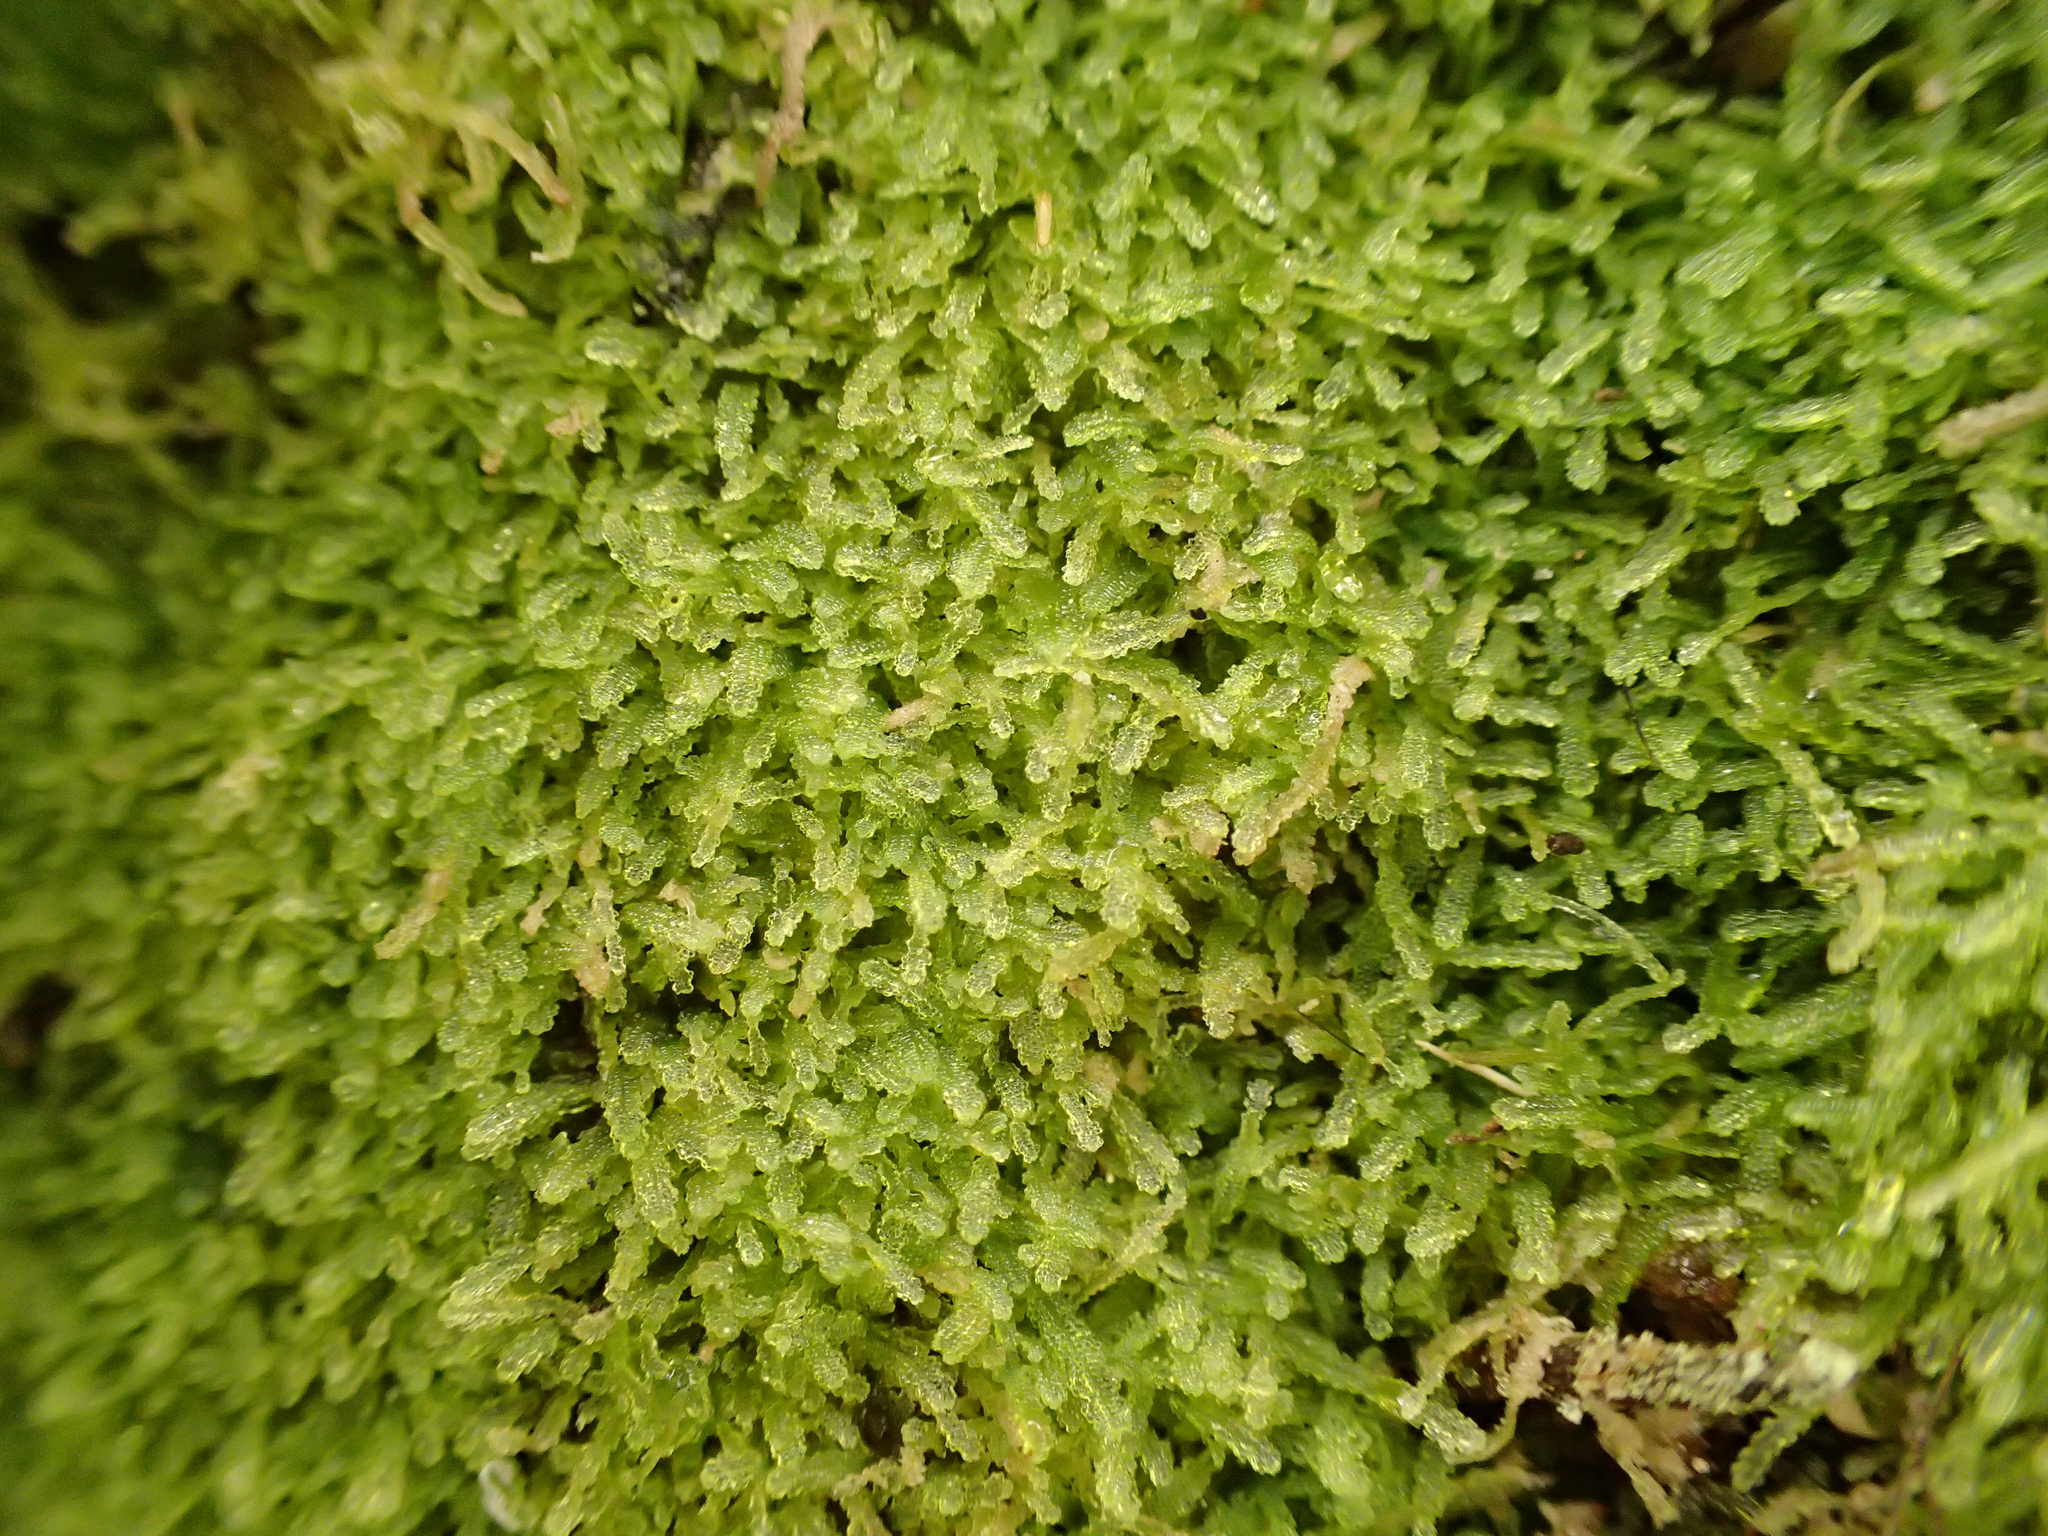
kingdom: Plantae
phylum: Marchantiophyta
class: Jungermanniopsida
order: Jungermanniales
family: Lepidoziaceae
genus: Zoopsis
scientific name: Zoopsis argentea
